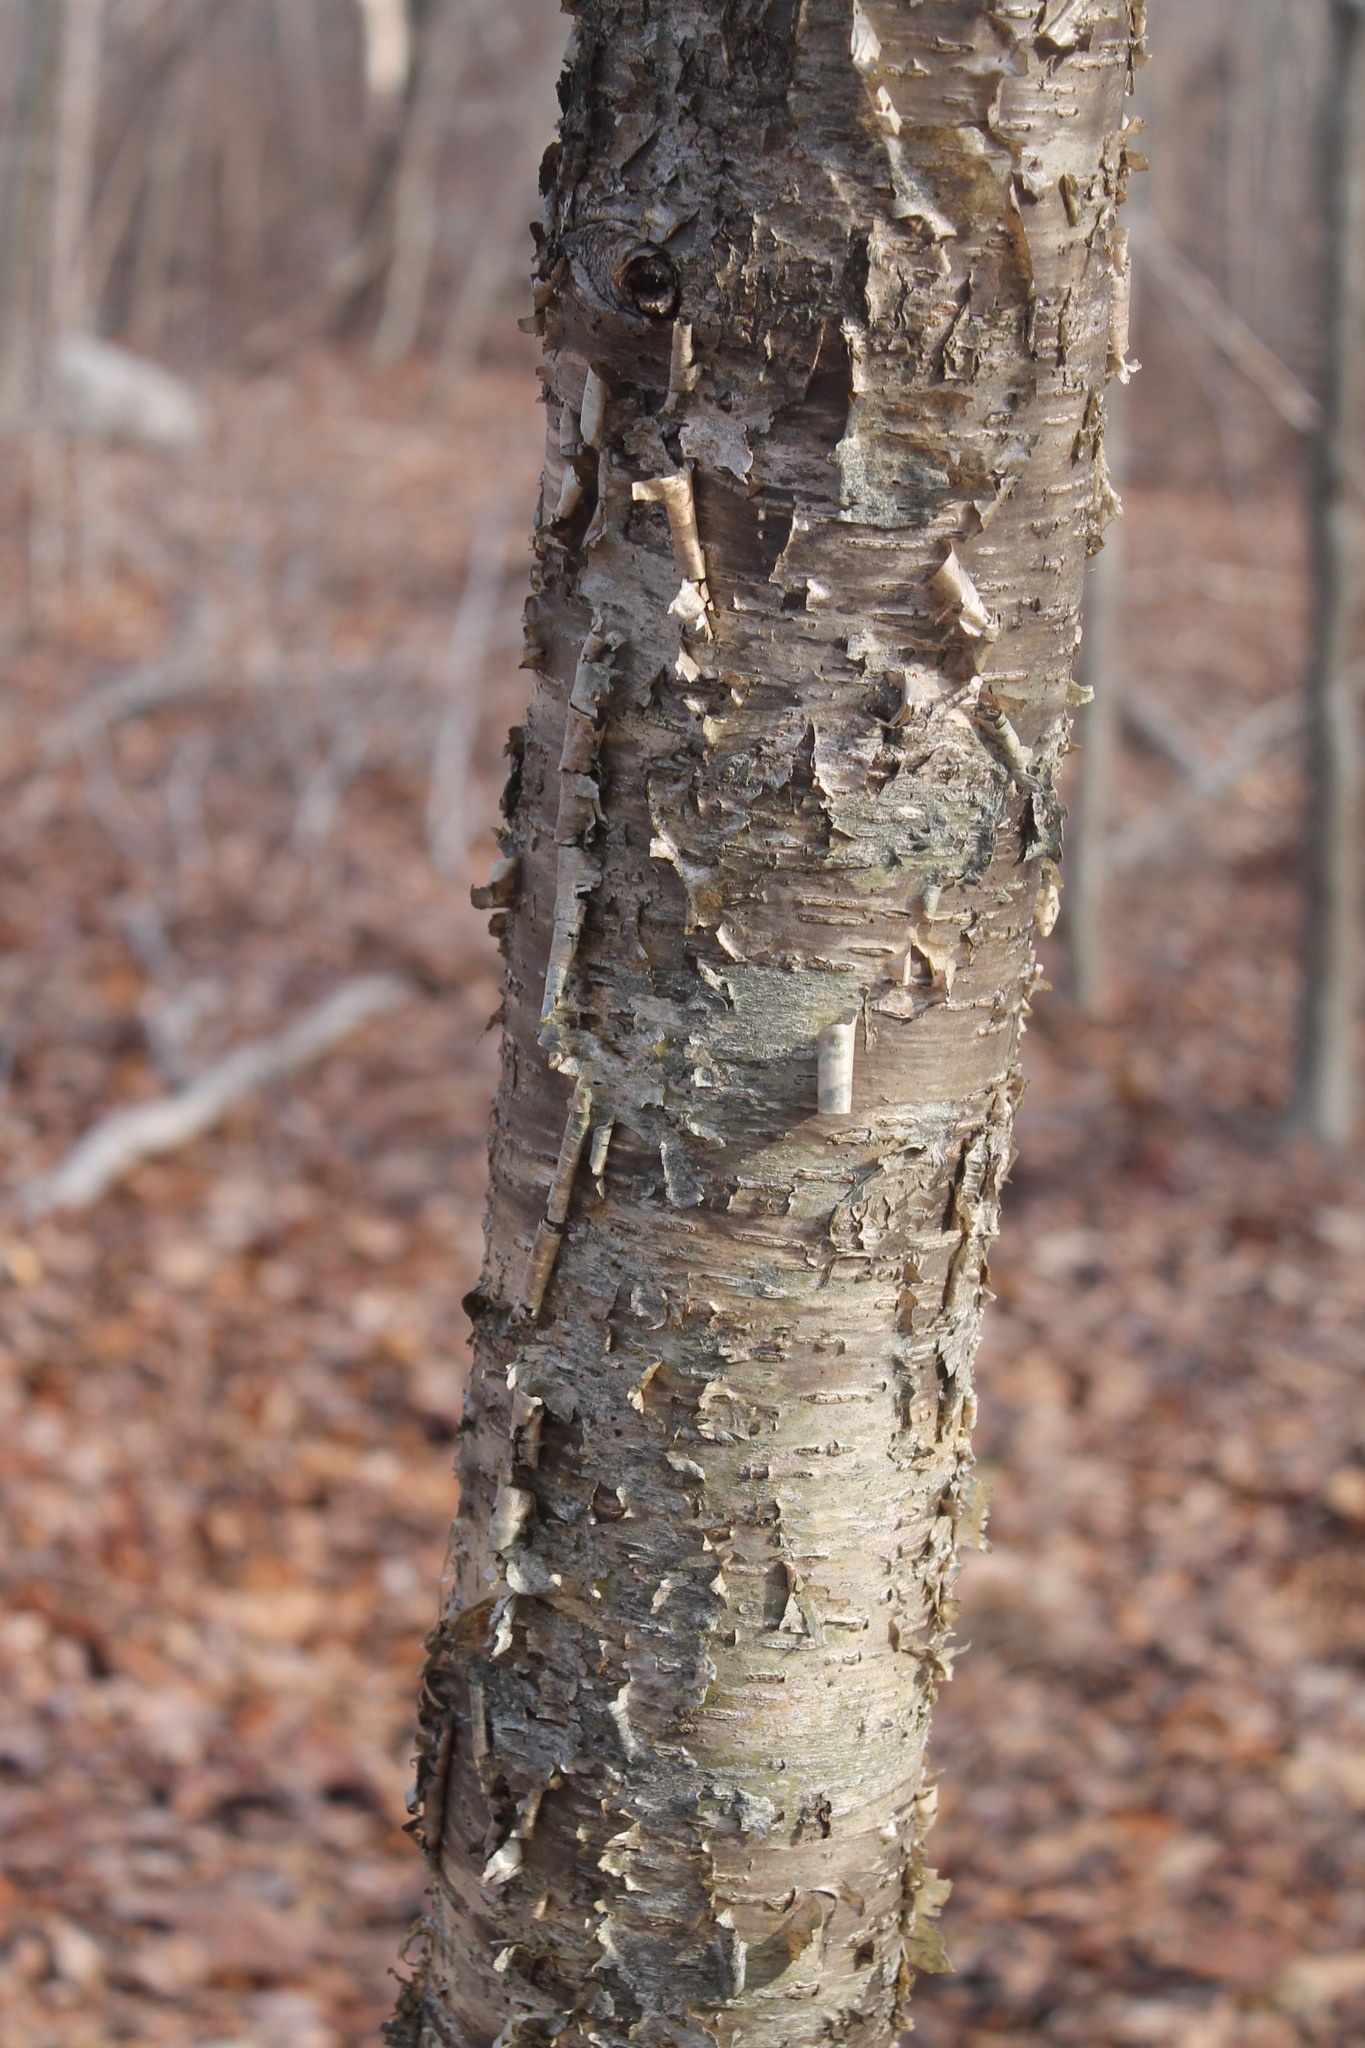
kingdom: Plantae
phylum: Tracheophyta
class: Magnoliopsida
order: Fagales
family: Betulaceae
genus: Betula
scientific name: Betula alleghaniensis
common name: Yellow birch
